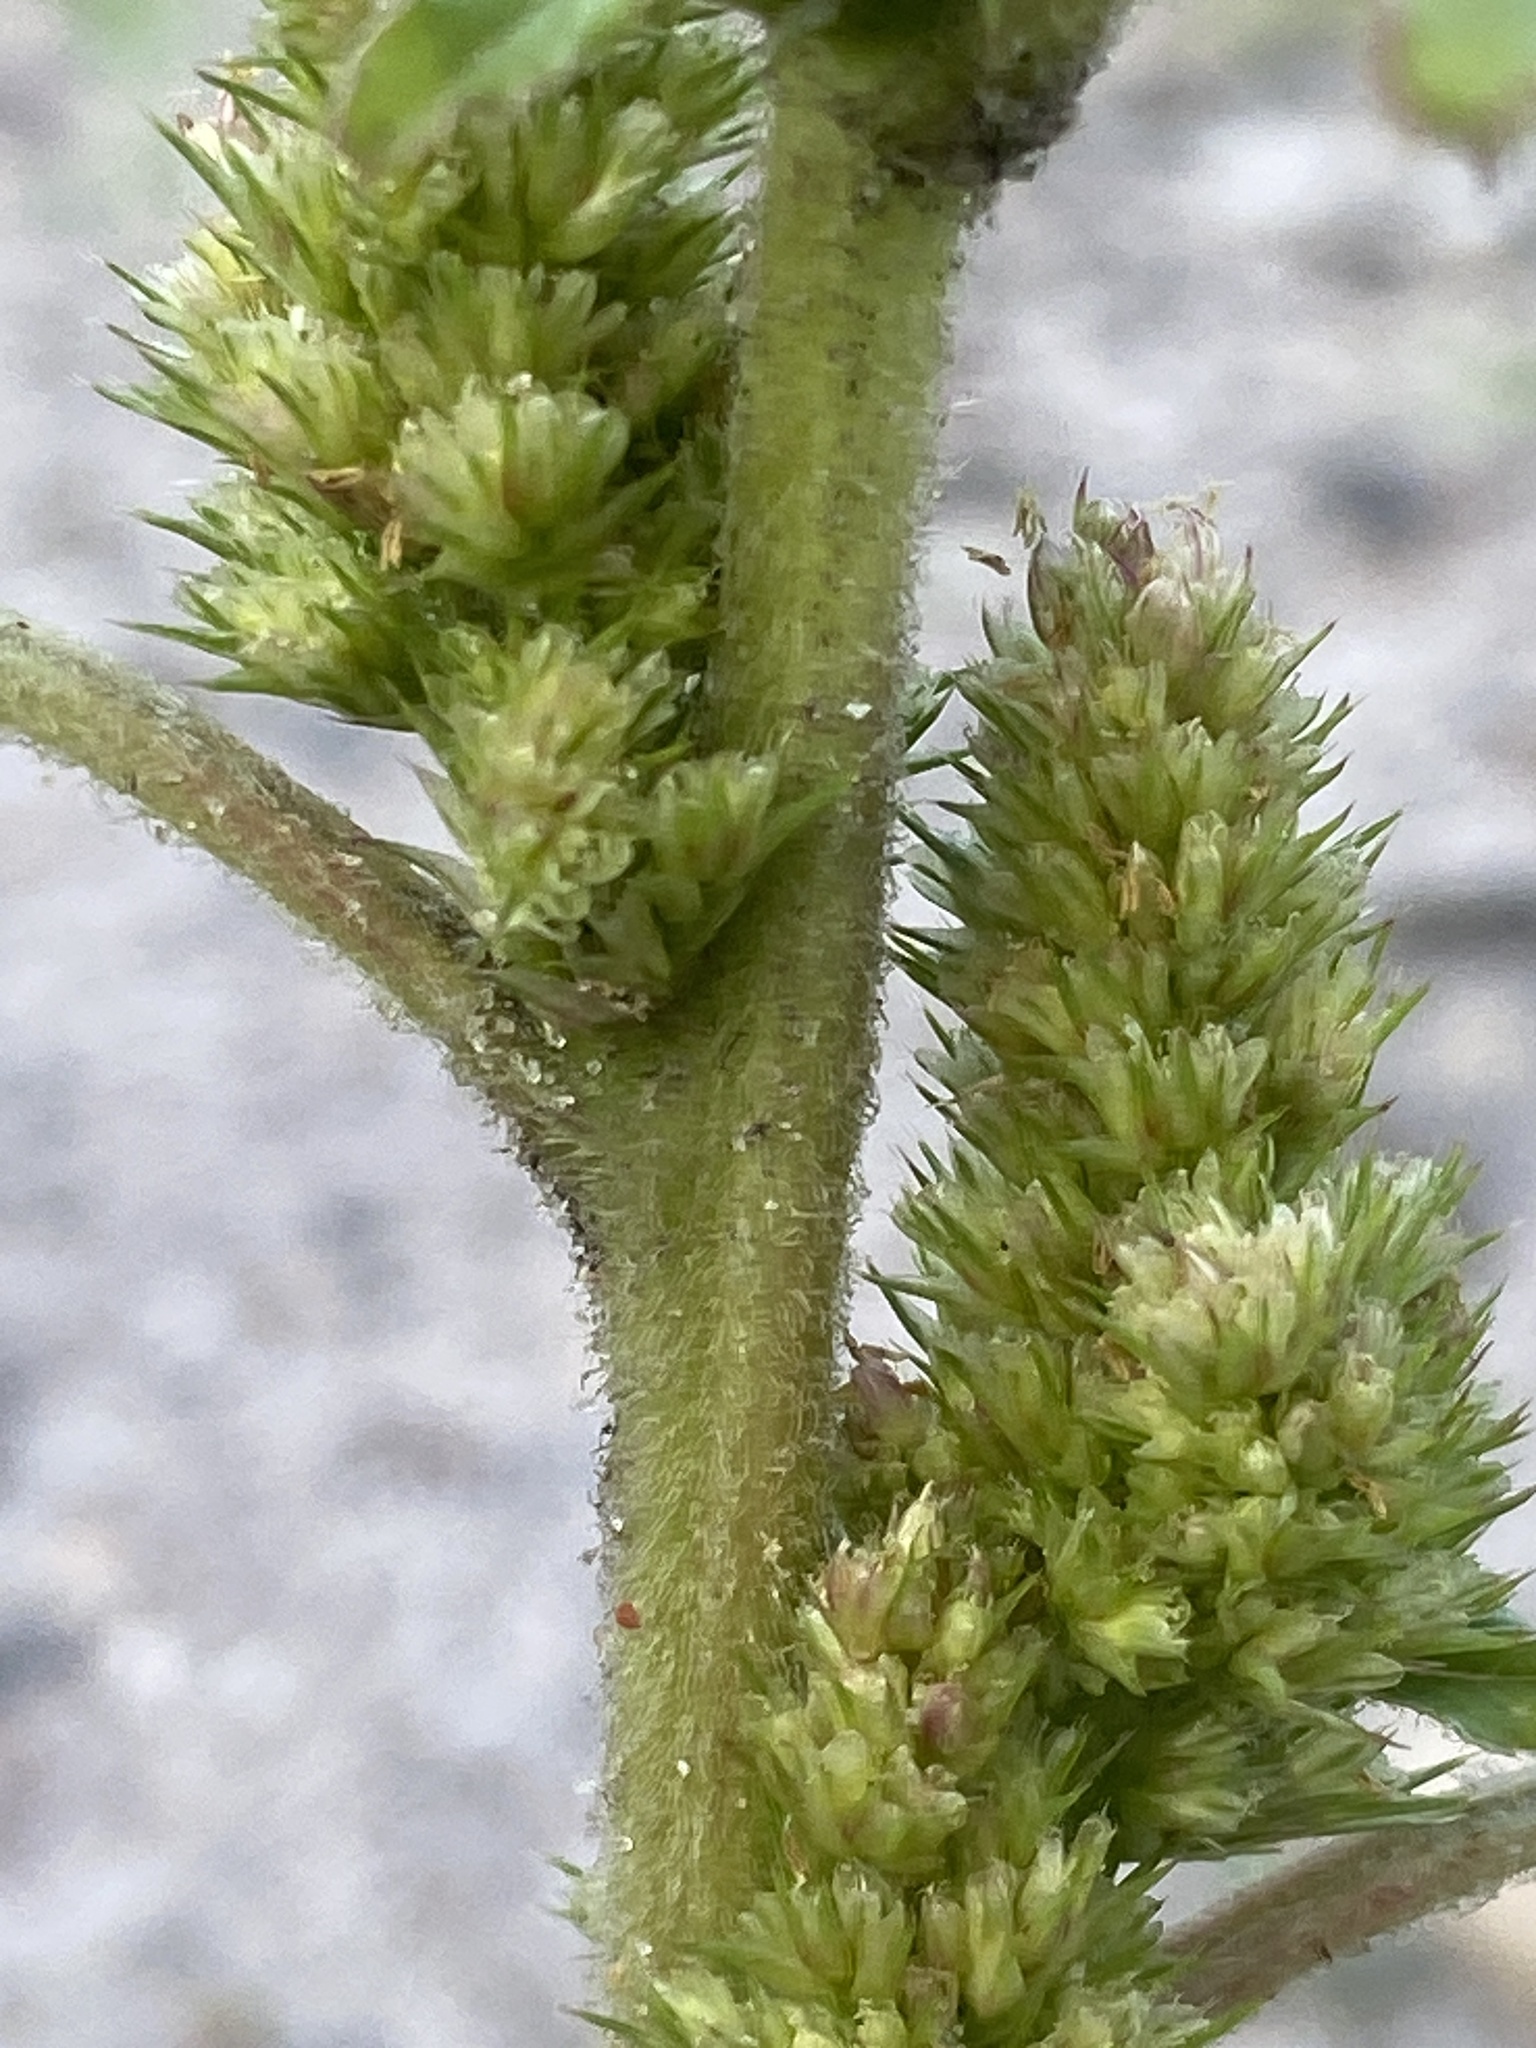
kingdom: Plantae
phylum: Tracheophyta
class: Magnoliopsida
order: Caryophyllales
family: Amaranthaceae
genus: Amaranthus
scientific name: Amaranthus retroflexus
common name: Redroot amaranth
